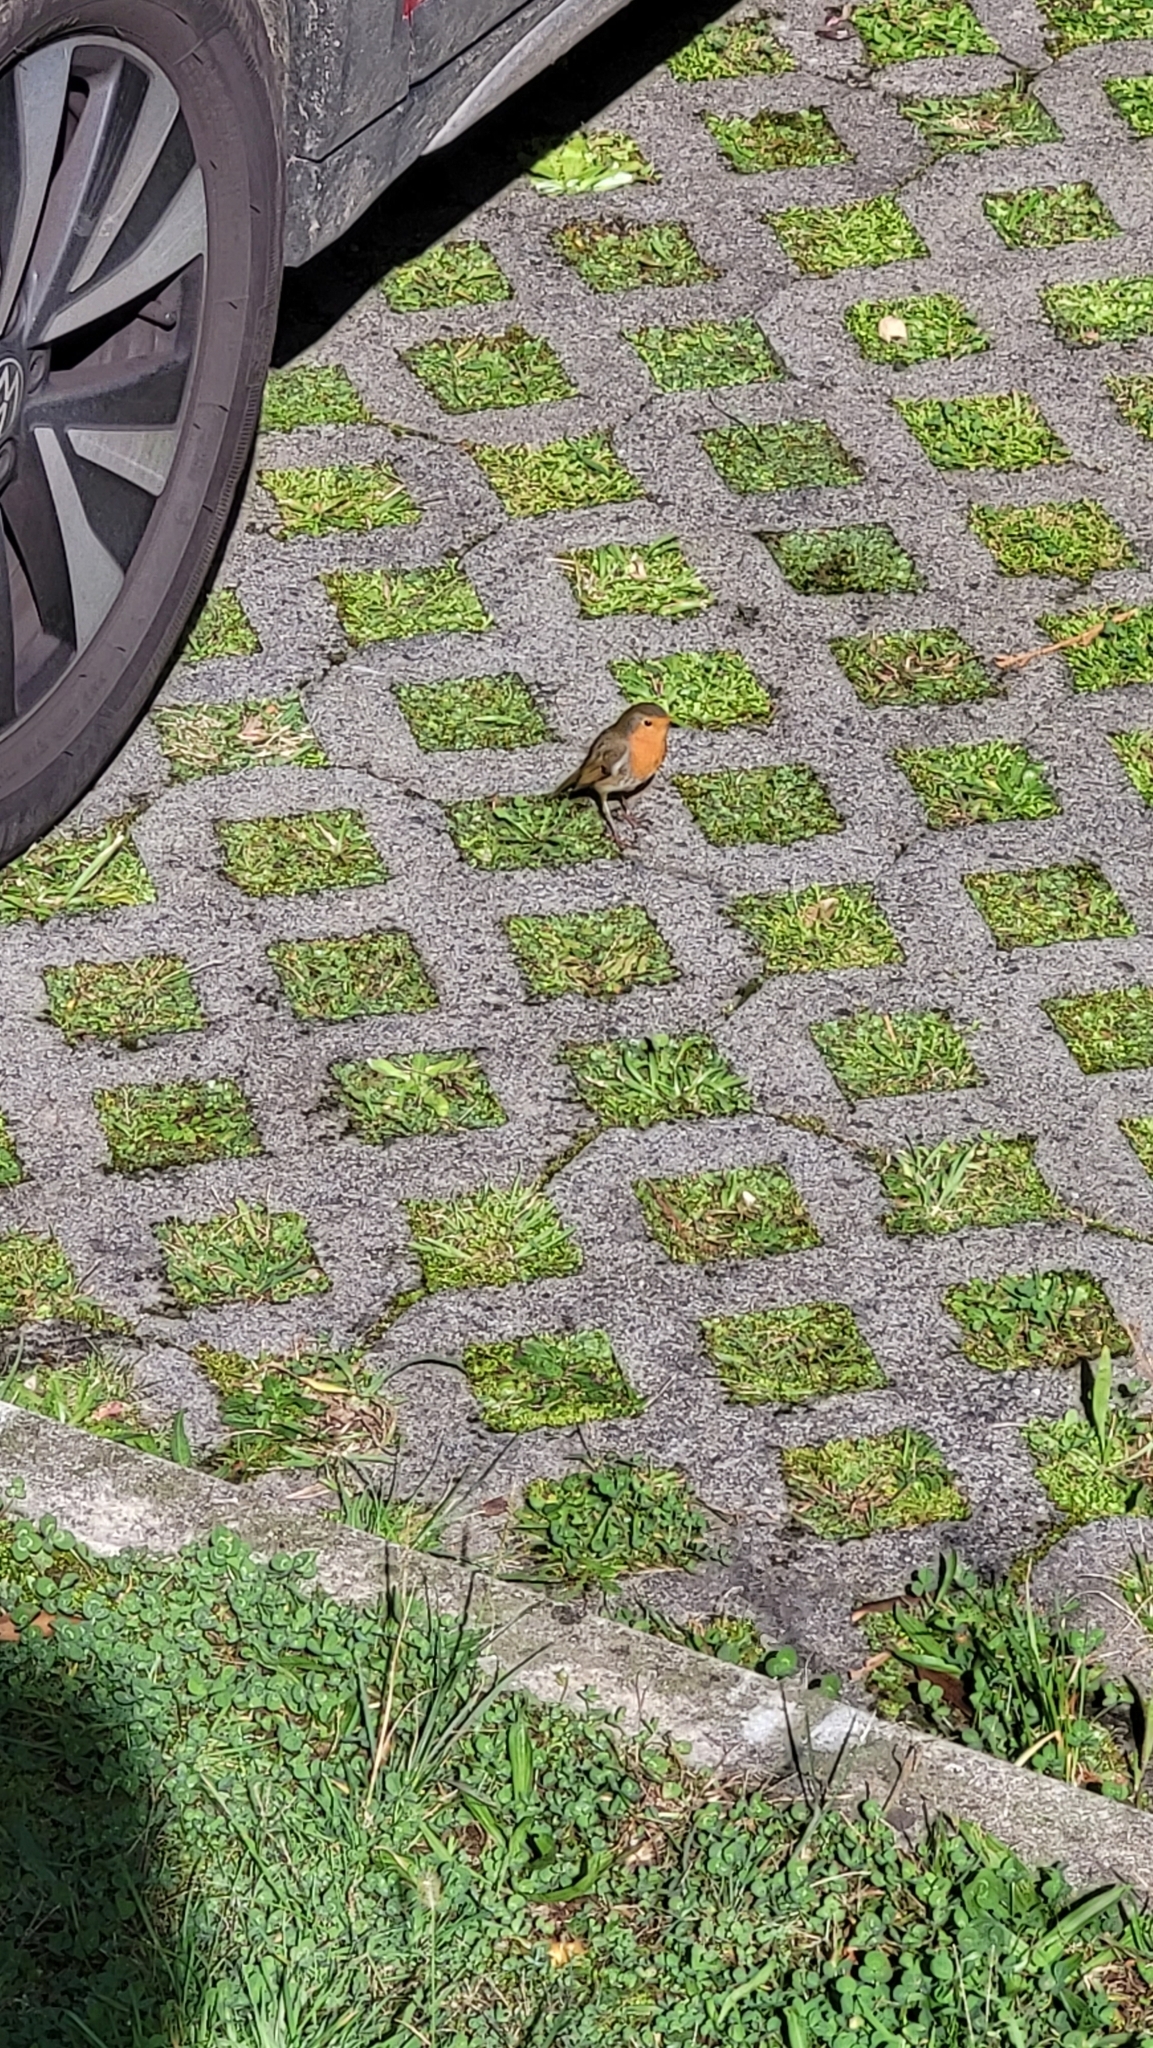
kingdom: Animalia
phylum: Chordata
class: Aves
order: Passeriformes
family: Muscicapidae
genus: Erithacus
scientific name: Erithacus rubecula
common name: European robin
